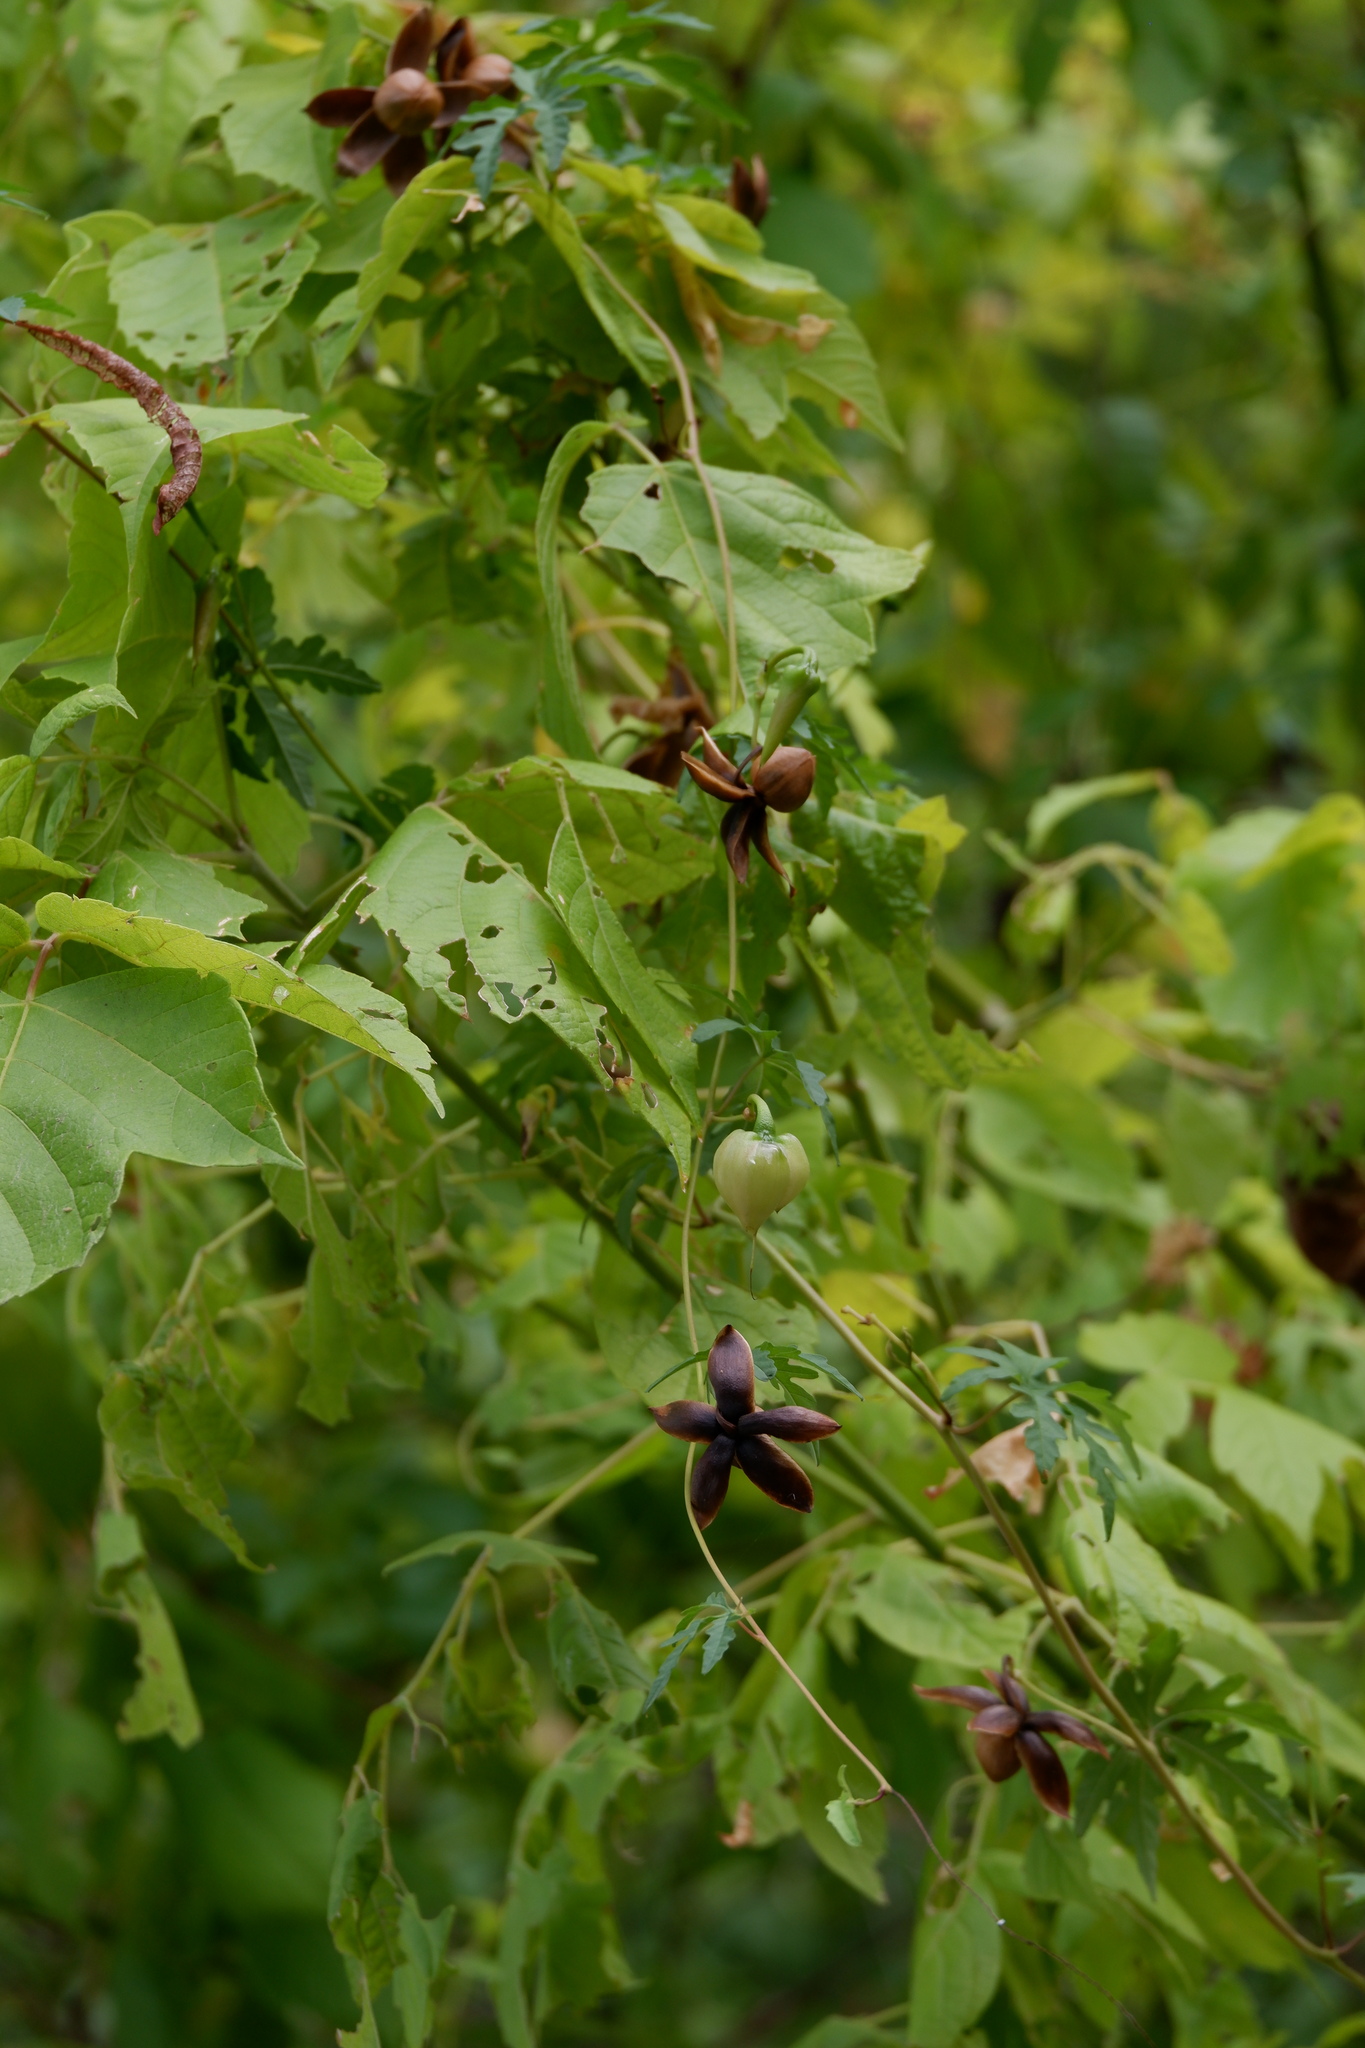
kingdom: Plantae
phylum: Tracheophyta
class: Magnoliopsida
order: Solanales
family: Convolvulaceae
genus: Distimake
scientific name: Distimake dissectus
